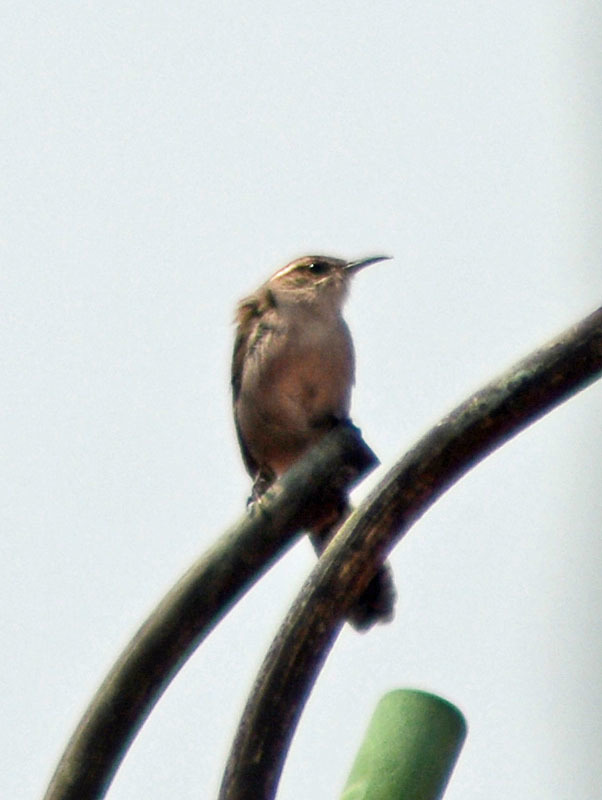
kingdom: Animalia
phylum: Chordata
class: Aves
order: Passeriformes
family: Troglodytidae
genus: Thryomanes
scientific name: Thryomanes bewickii
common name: Bewick's wren
